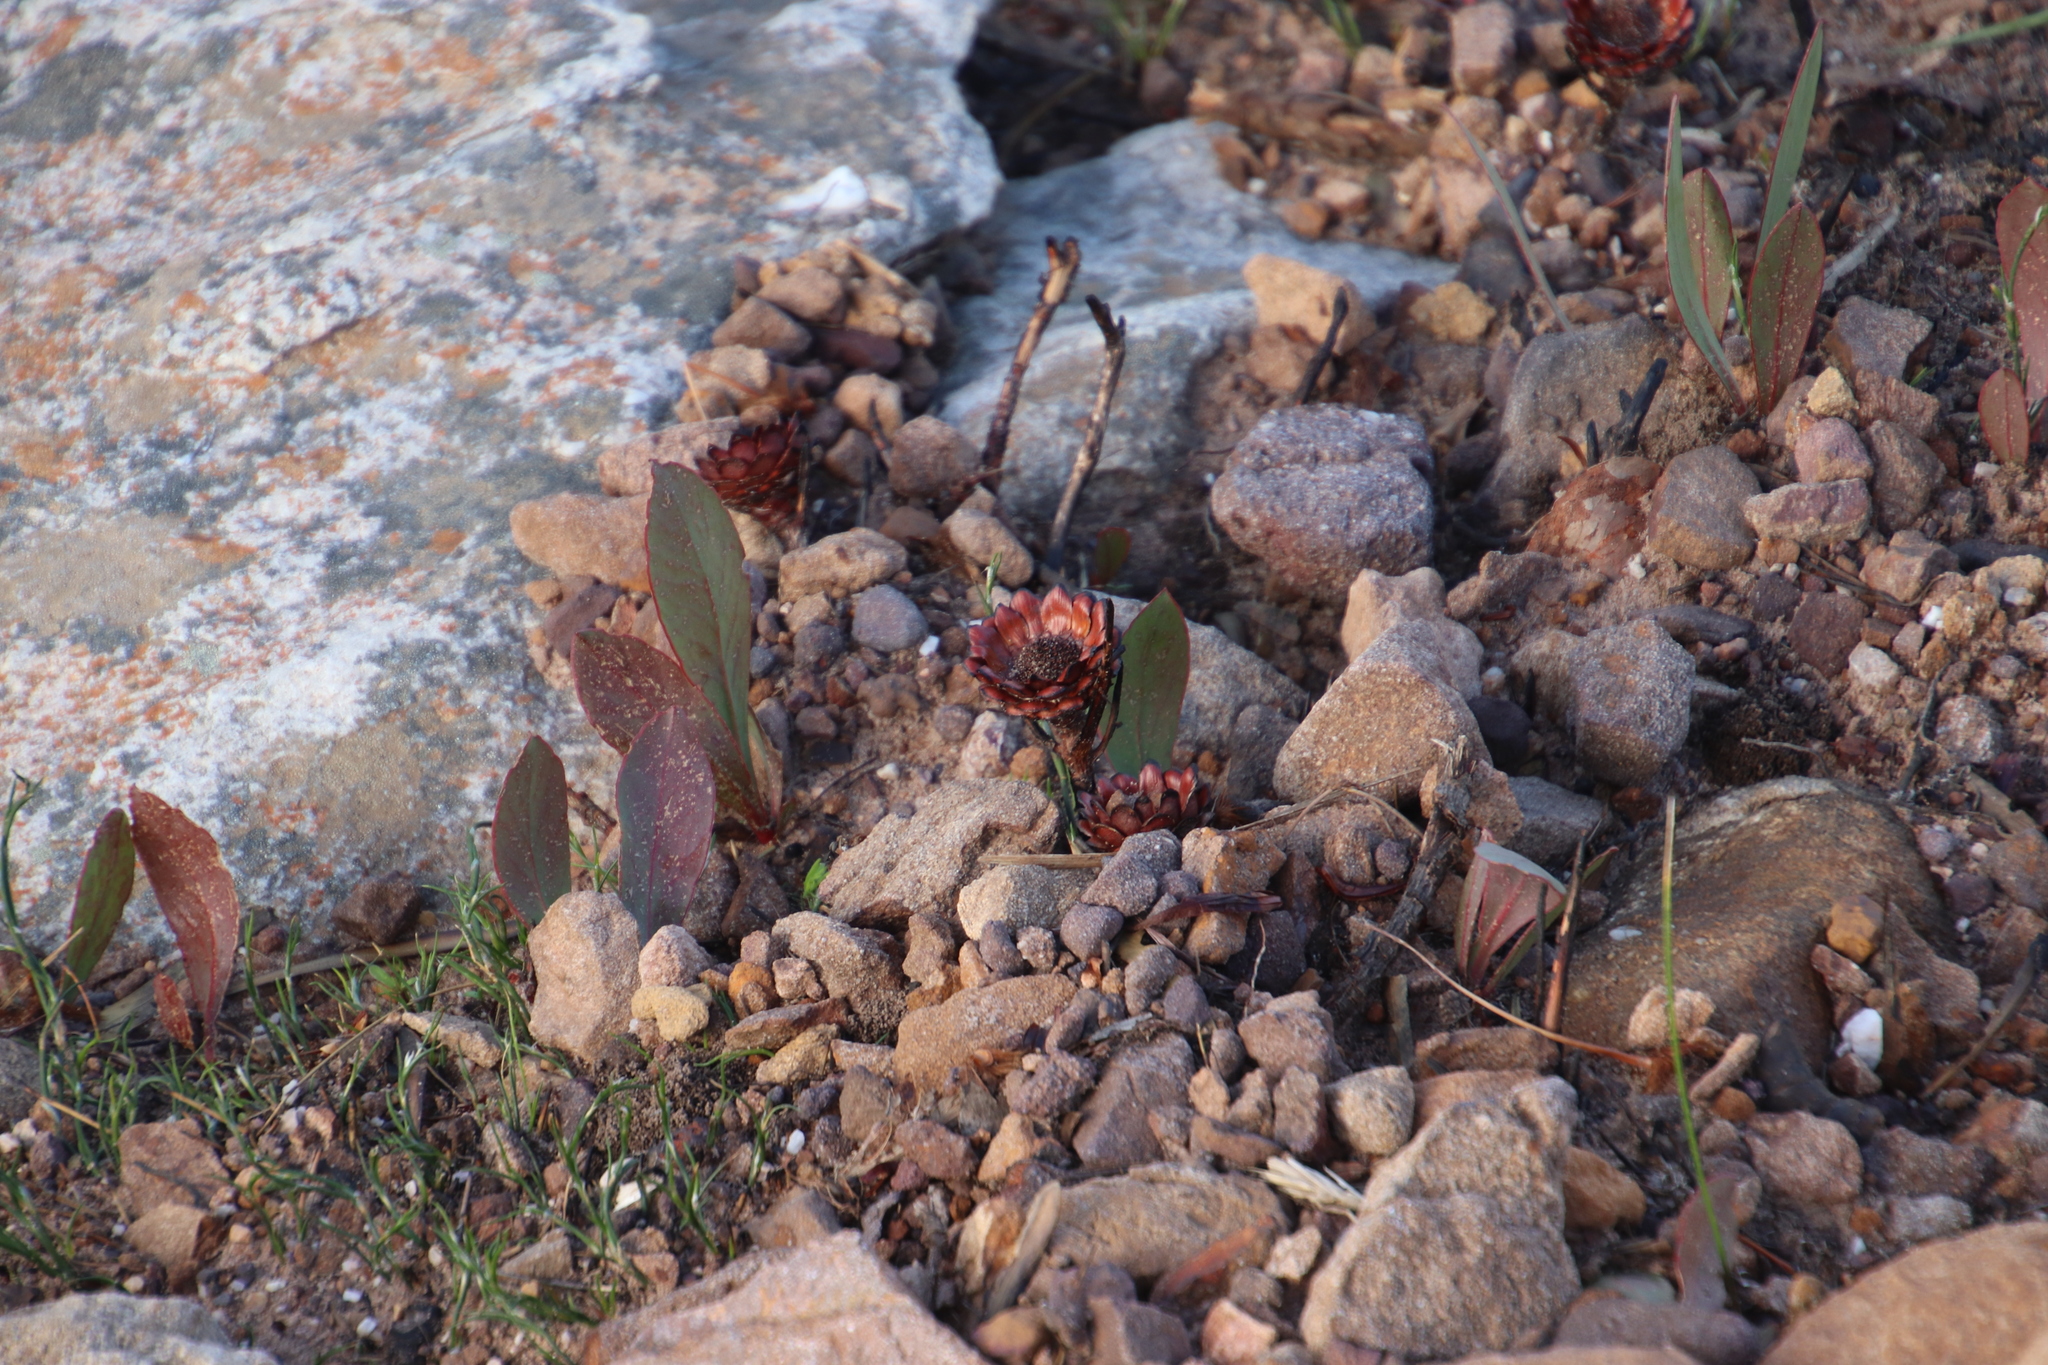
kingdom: Plantae
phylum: Tracheophyta
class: Magnoliopsida
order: Proteales
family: Proteaceae
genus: Protea
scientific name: Protea acaulos
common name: Common ground sugarbush
